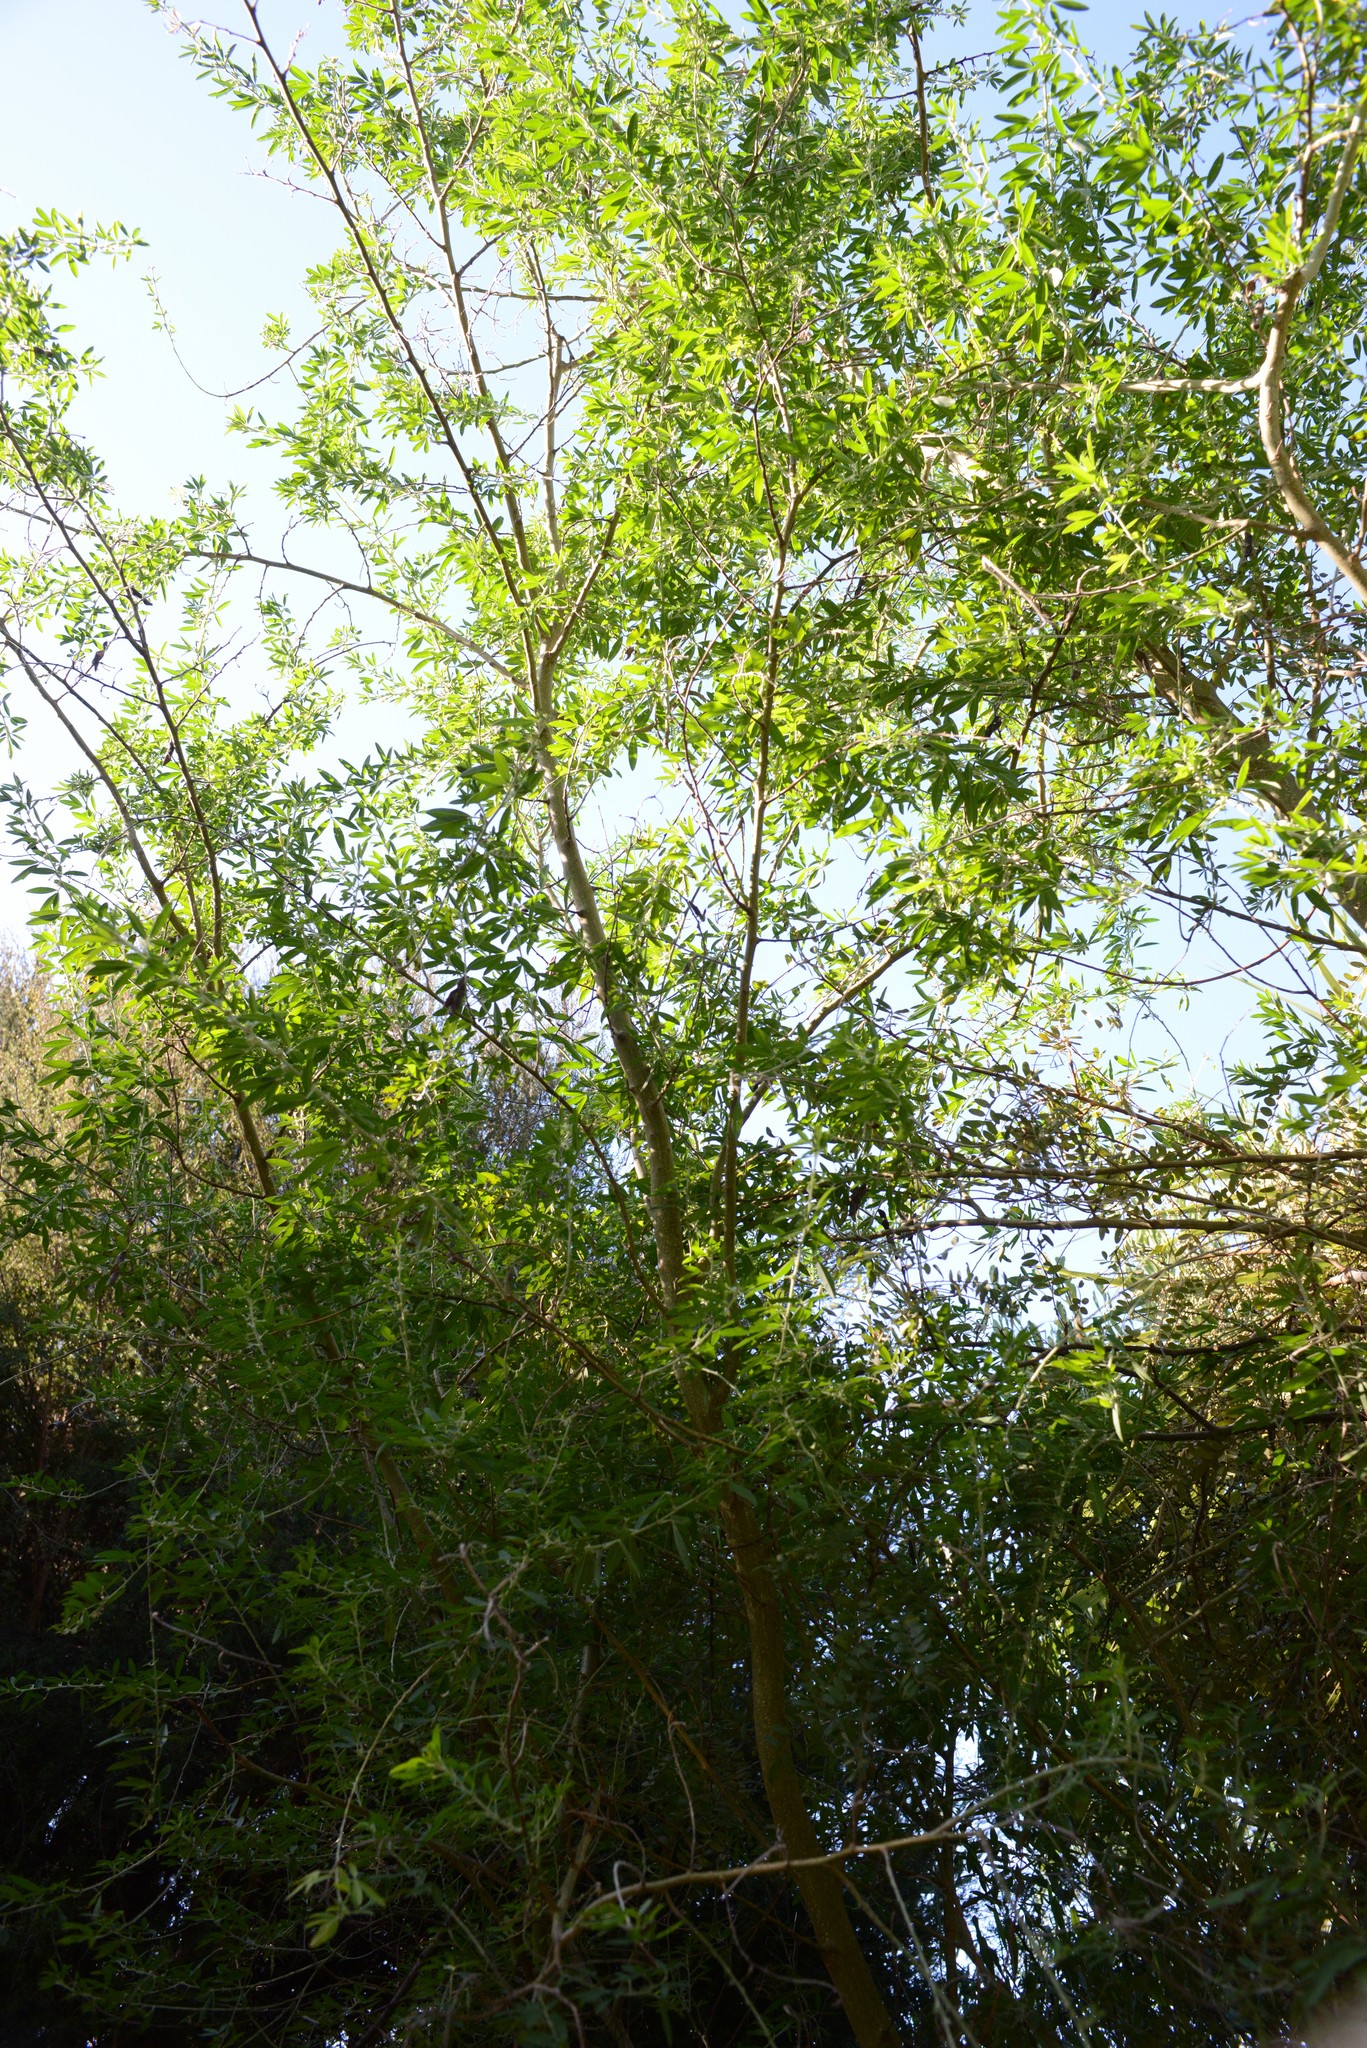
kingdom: Plantae
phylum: Tracheophyta
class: Magnoliopsida
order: Fabales
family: Fabaceae
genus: Chamaecytisus
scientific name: Chamaecytisus prolifer
